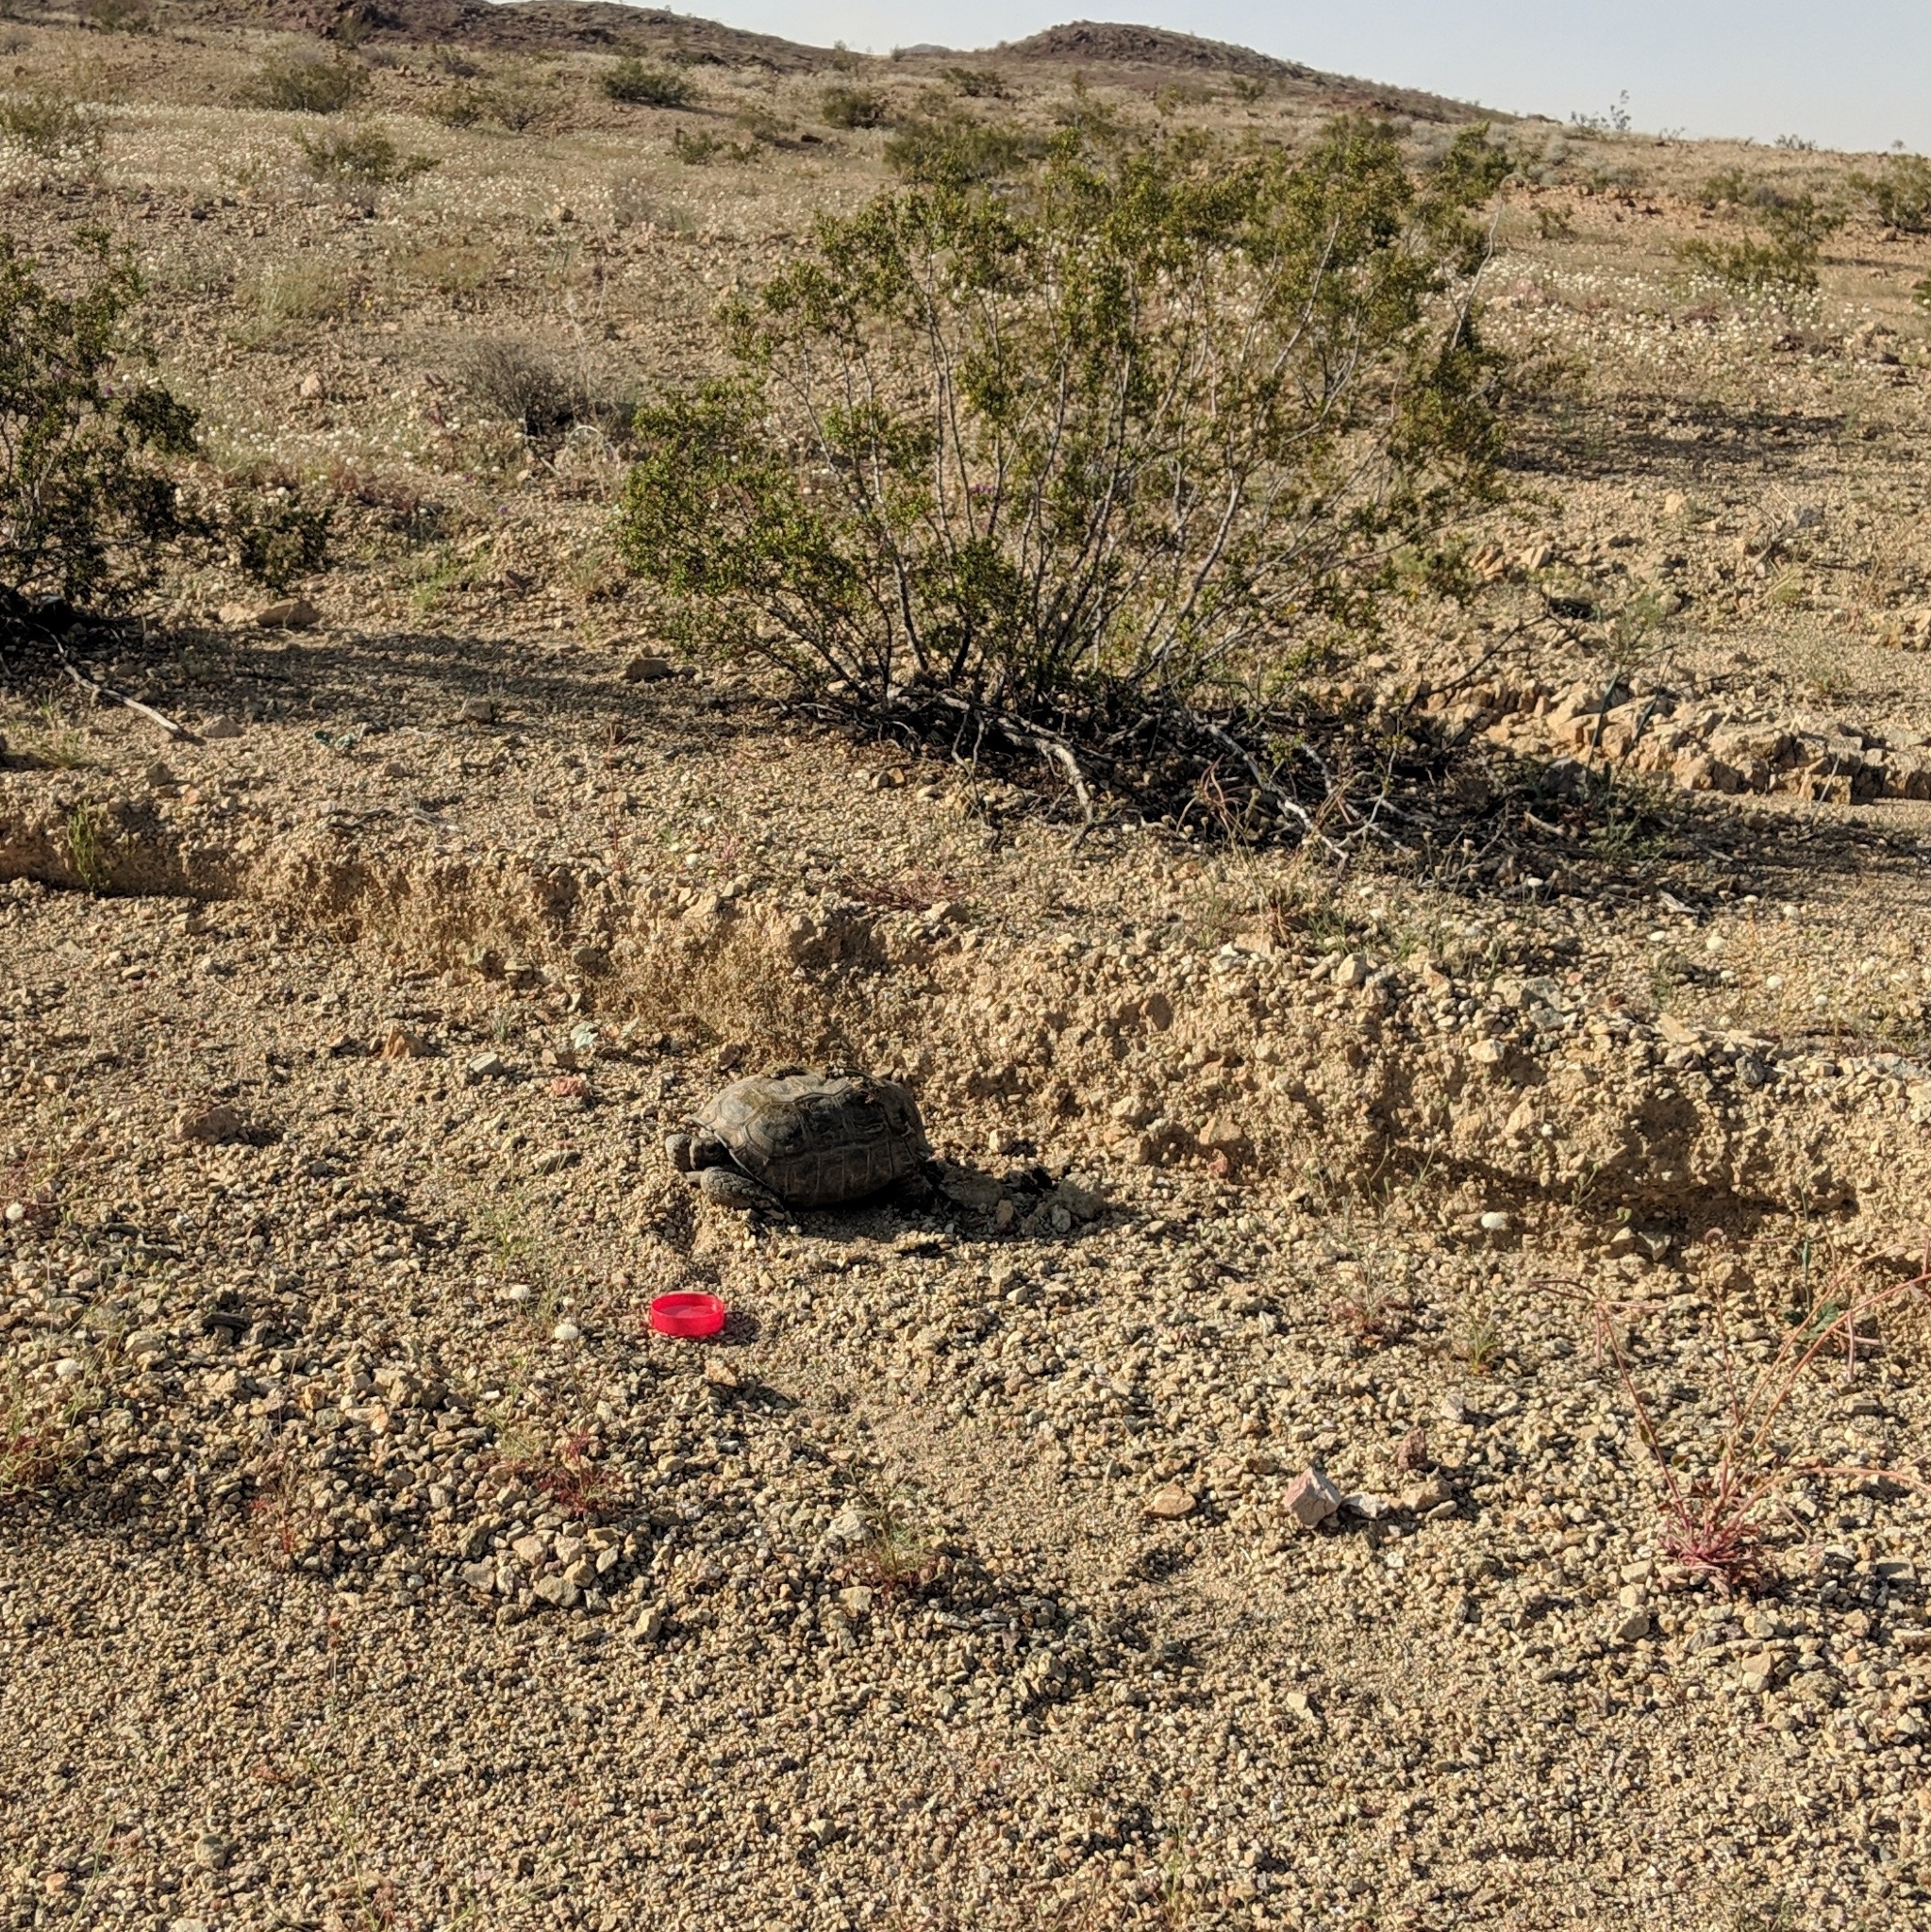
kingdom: Animalia
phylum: Chordata
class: Testudines
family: Testudinidae
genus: Gopherus
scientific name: Gopherus agassizii
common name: Mojave desert tortoise
